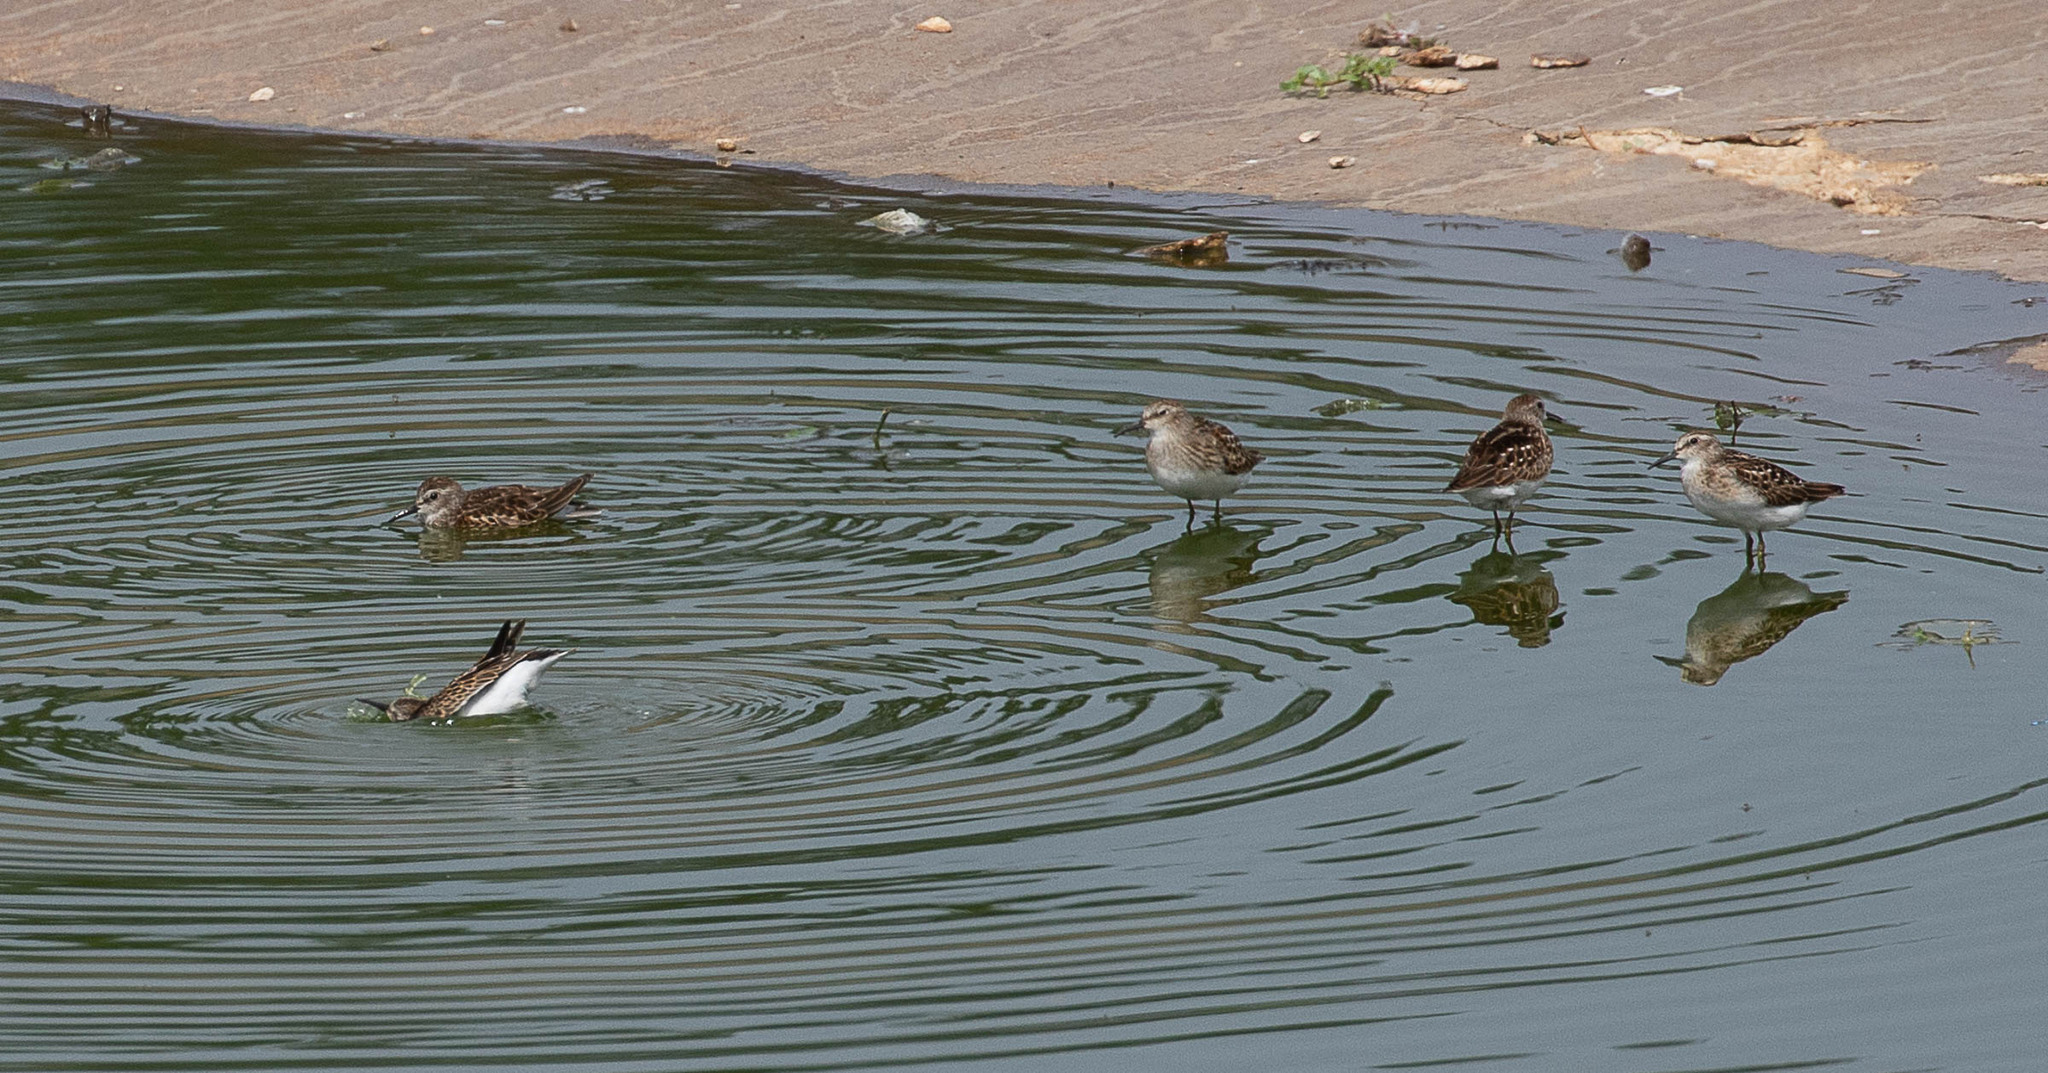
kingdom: Animalia
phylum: Chordata
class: Aves
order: Charadriiformes
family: Scolopacidae
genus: Calidris
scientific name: Calidris minutilla
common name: Least sandpiper
